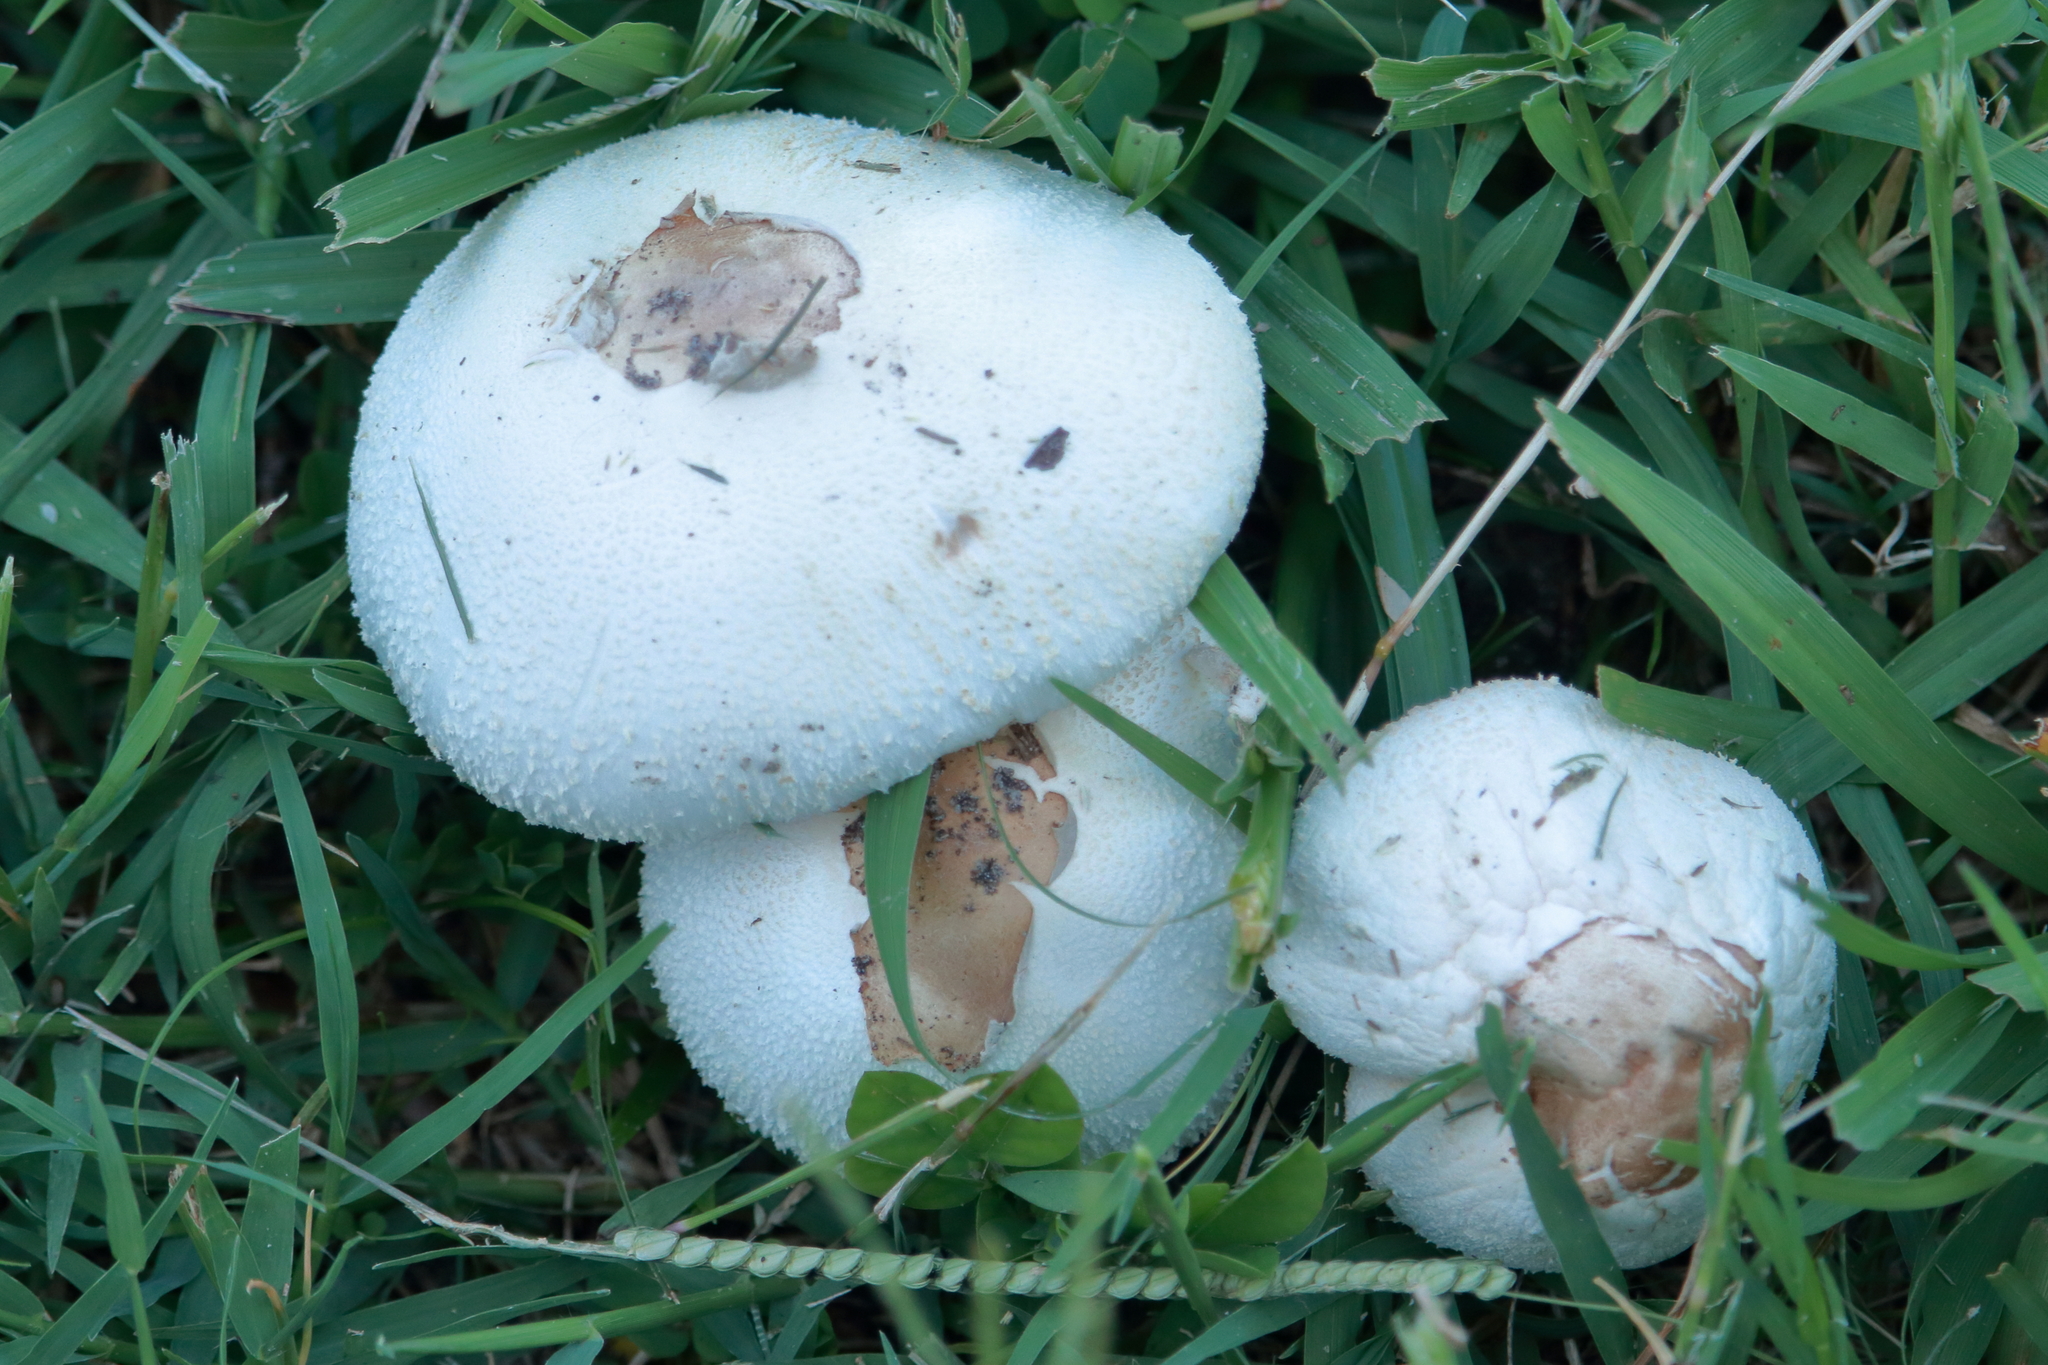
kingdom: Fungi
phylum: Basidiomycota
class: Agaricomycetes
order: Agaricales
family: Agaricaceae
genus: Chlorophyllum
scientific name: Chlorophyllum molybdites
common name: False parasol
